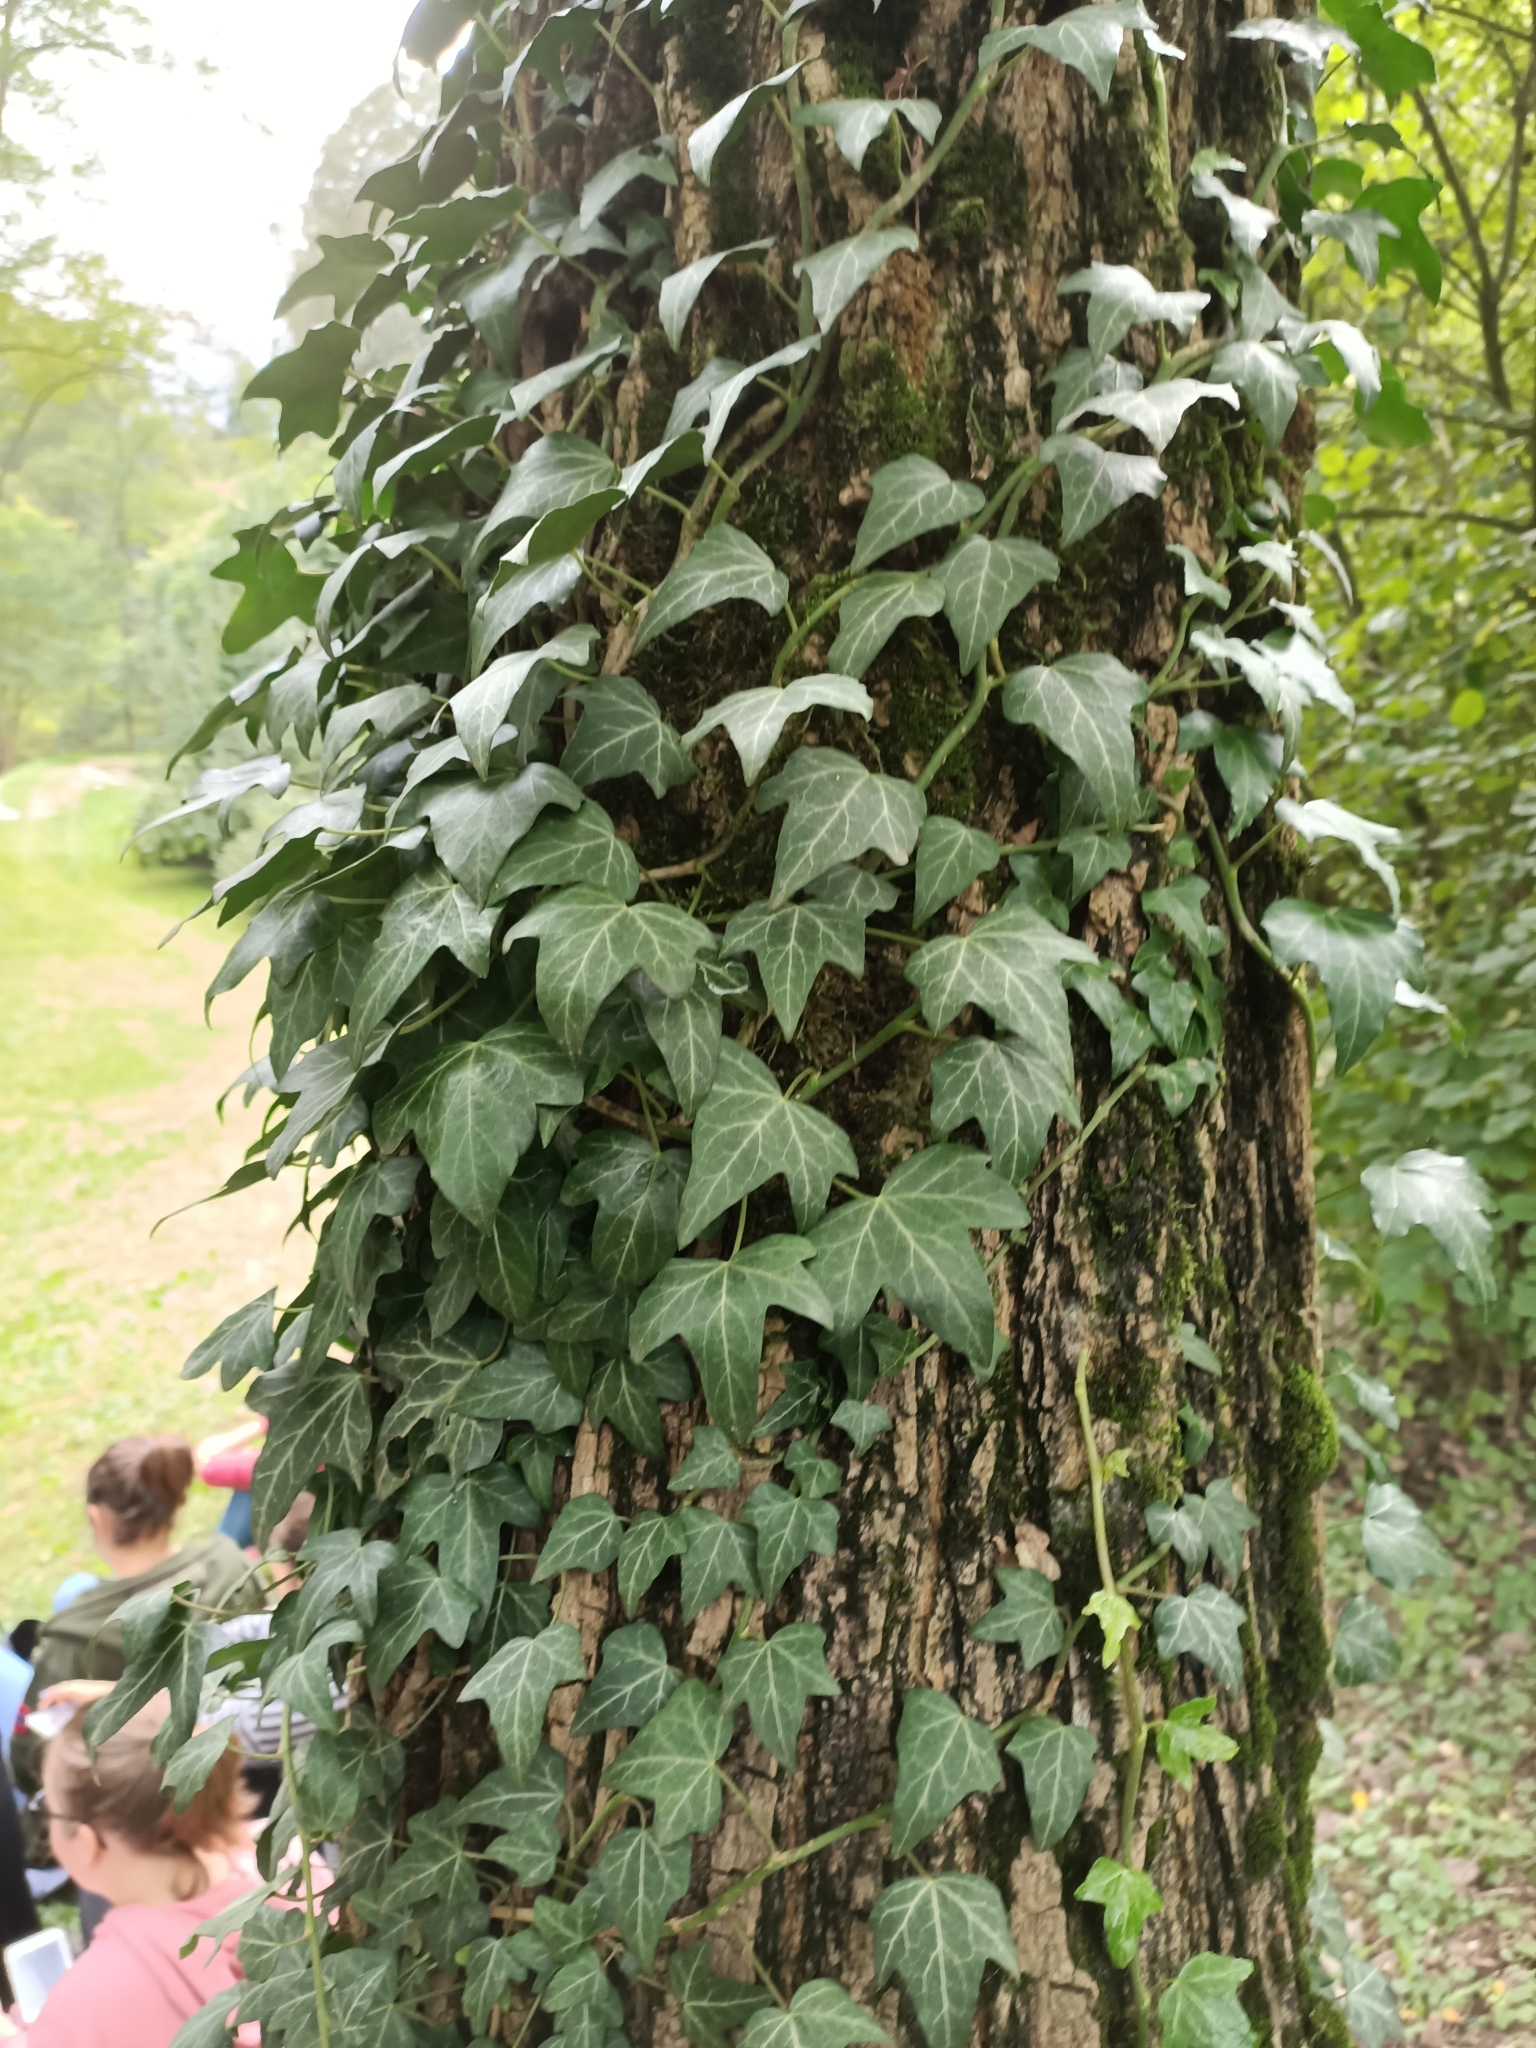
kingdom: Plantae
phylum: Tracheophyta
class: Magnoliopsida
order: Apiales
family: Araliaceae
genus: Hedera
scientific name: Hedera helix
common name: Ivy
